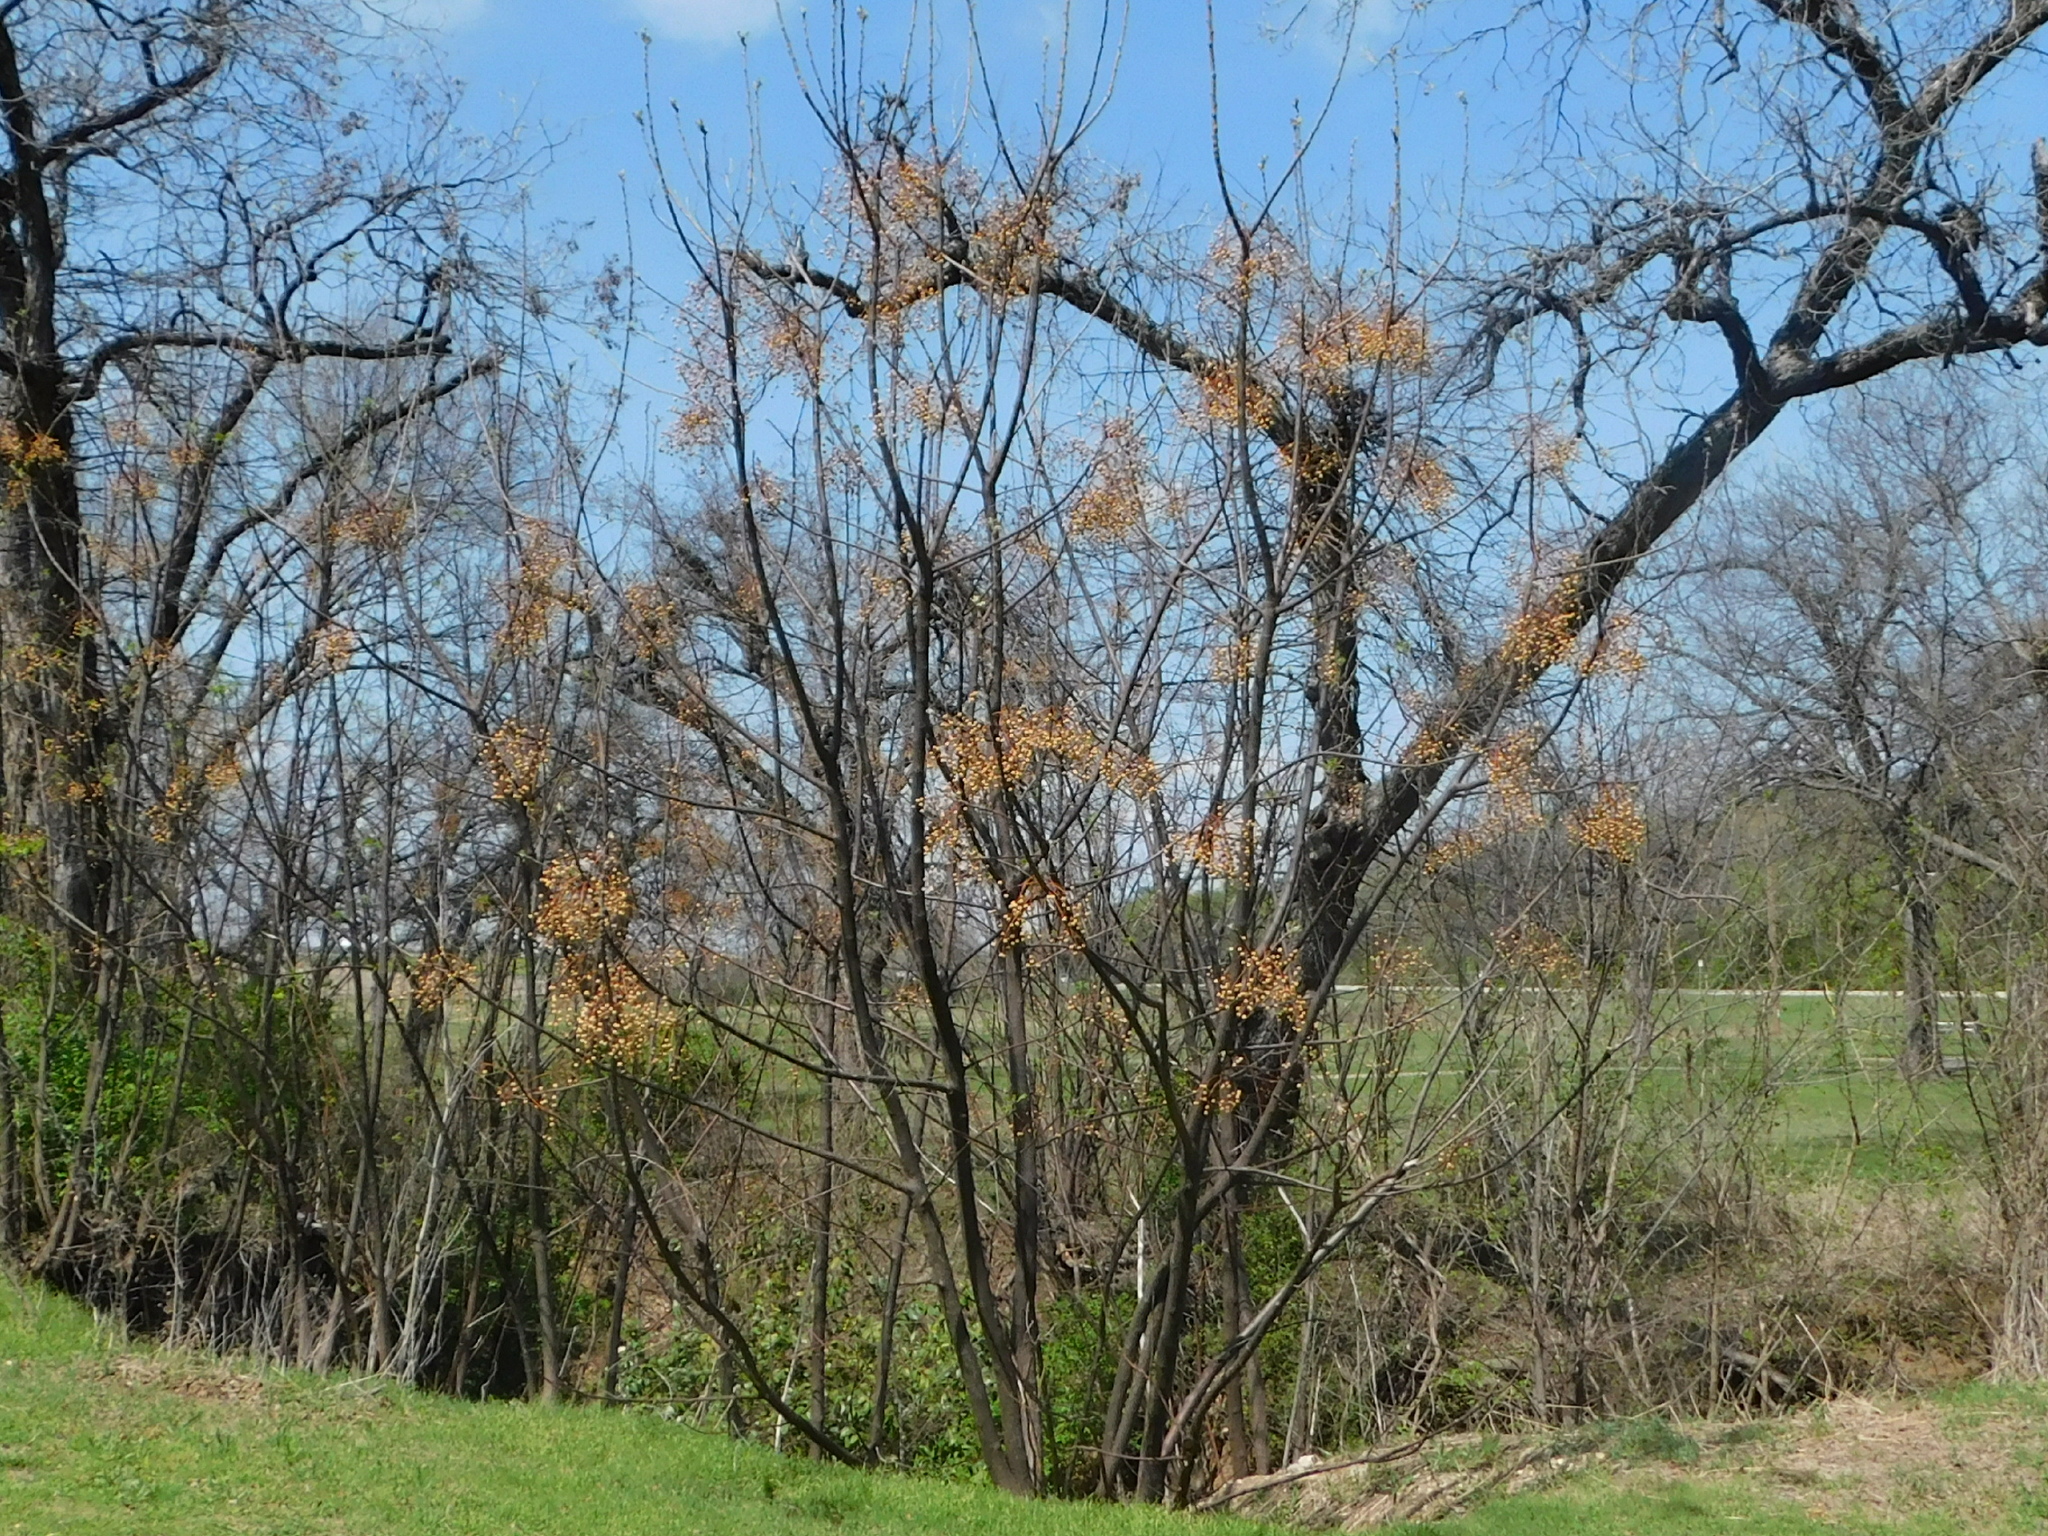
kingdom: Plantae
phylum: Tracheophyta
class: Magnoliopsida
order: Sapindales
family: Meliaceae
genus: Melia
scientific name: Melia azedarach
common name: Chinaberrytree
